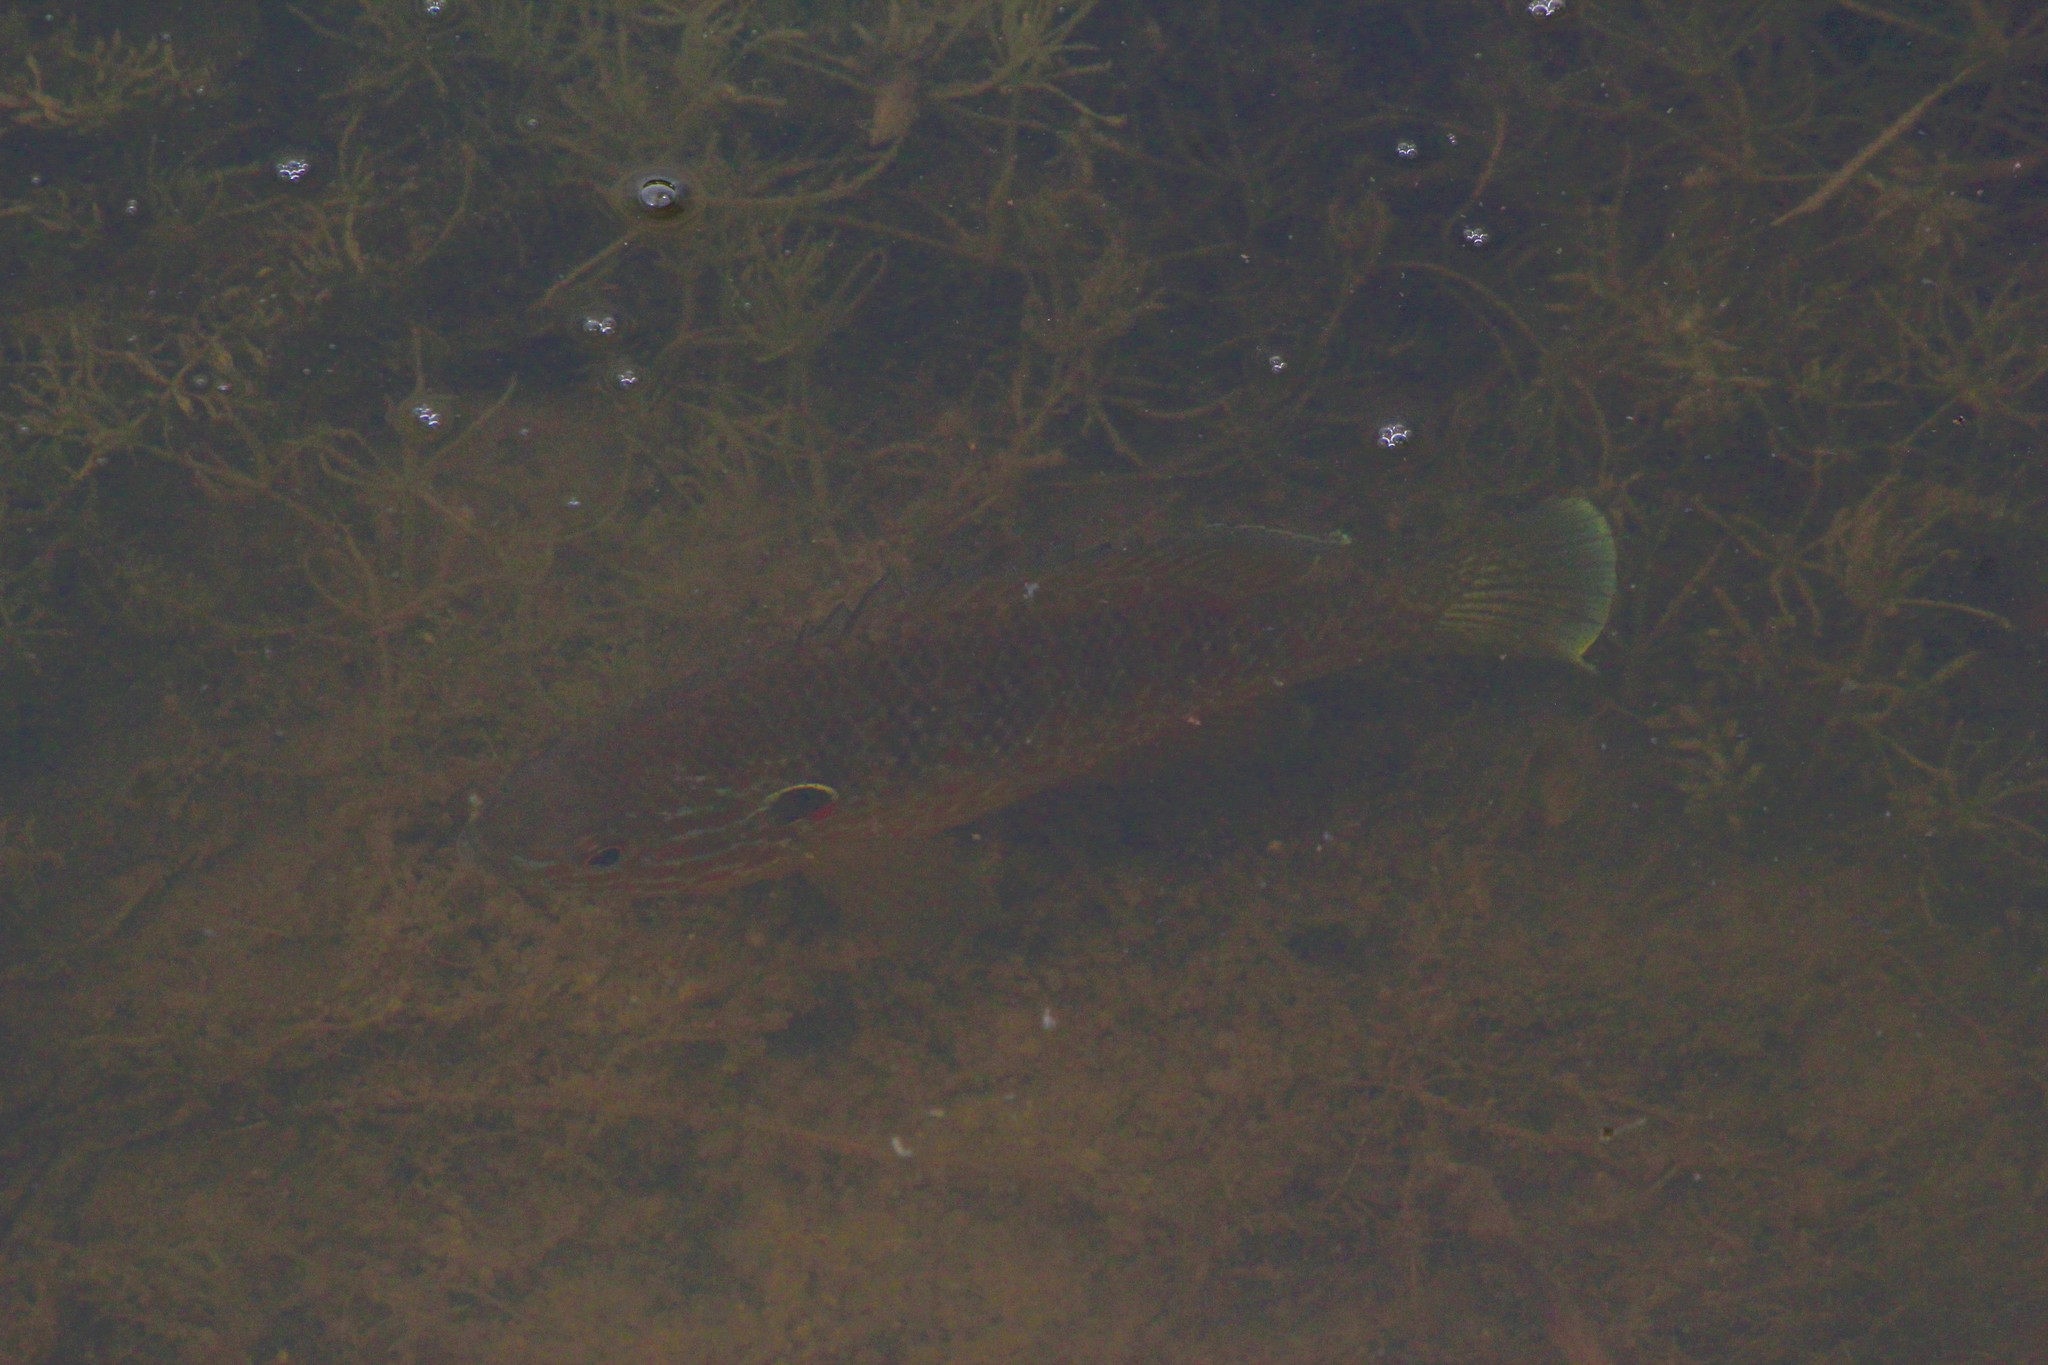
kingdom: Animalia
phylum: Chordata
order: Perciformes
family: Centrarchidae
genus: Lepomis
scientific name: Lepomis gibbosus
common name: Pumpkinseed
